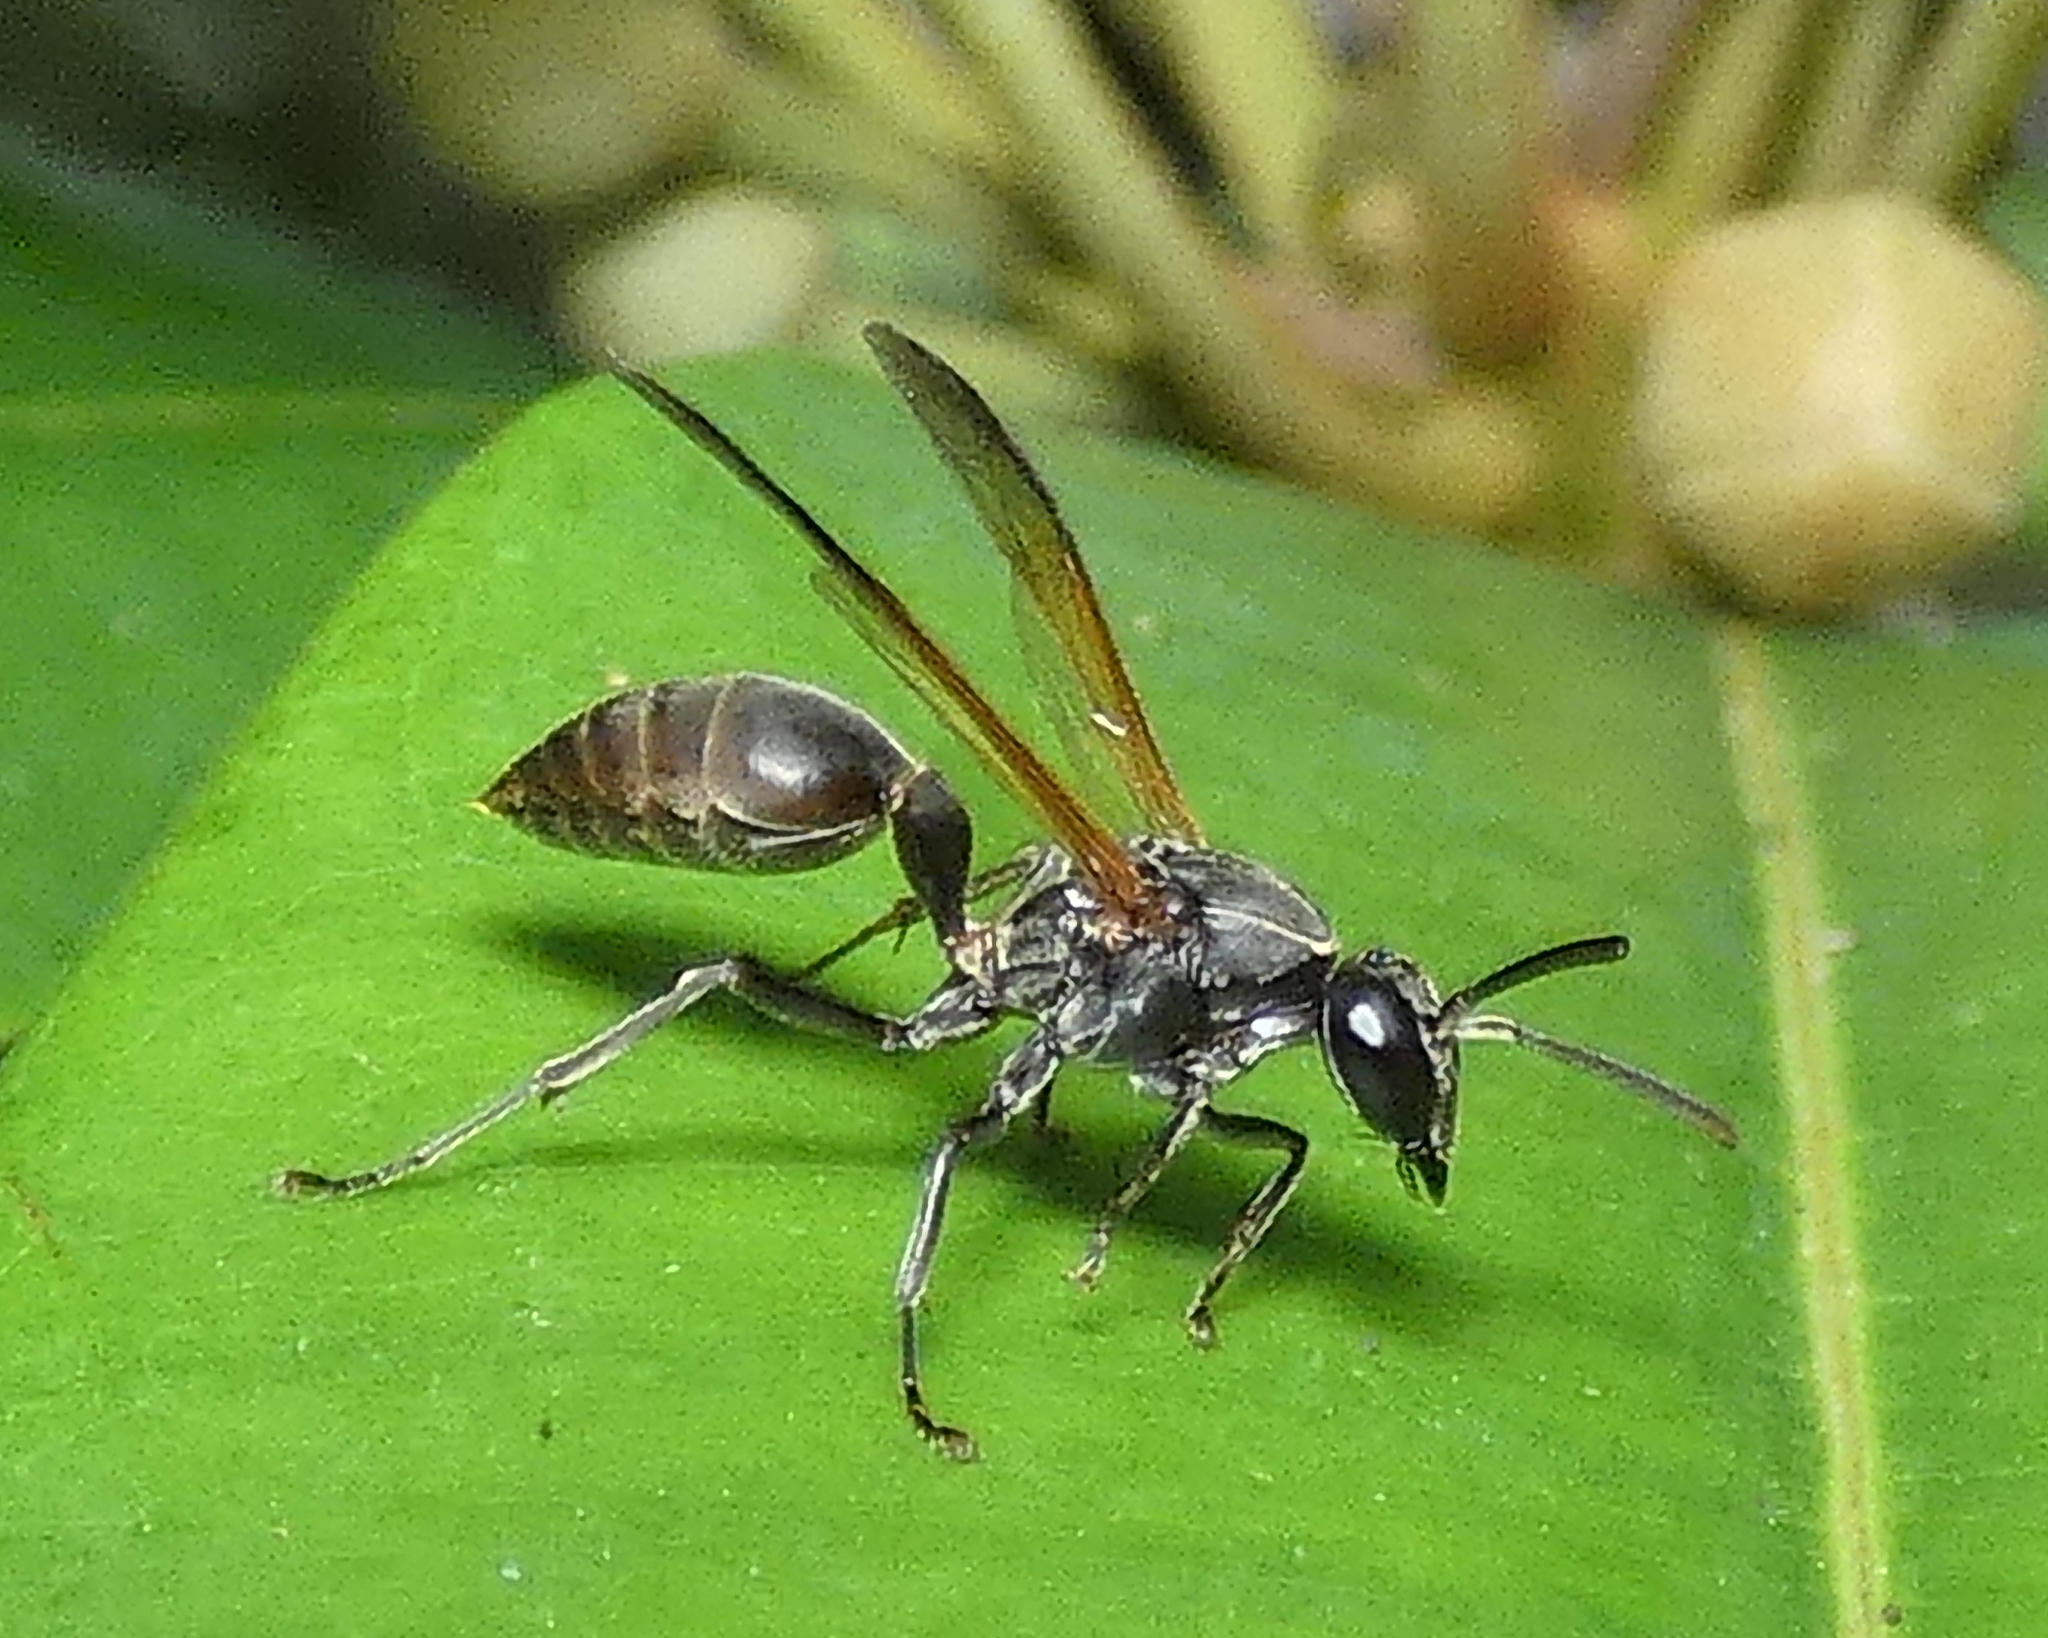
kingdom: Animalia
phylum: Arthropoda
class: Insecta
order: Hymenoptera
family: Eumenidae
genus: Polybia
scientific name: Polybia rejecta
